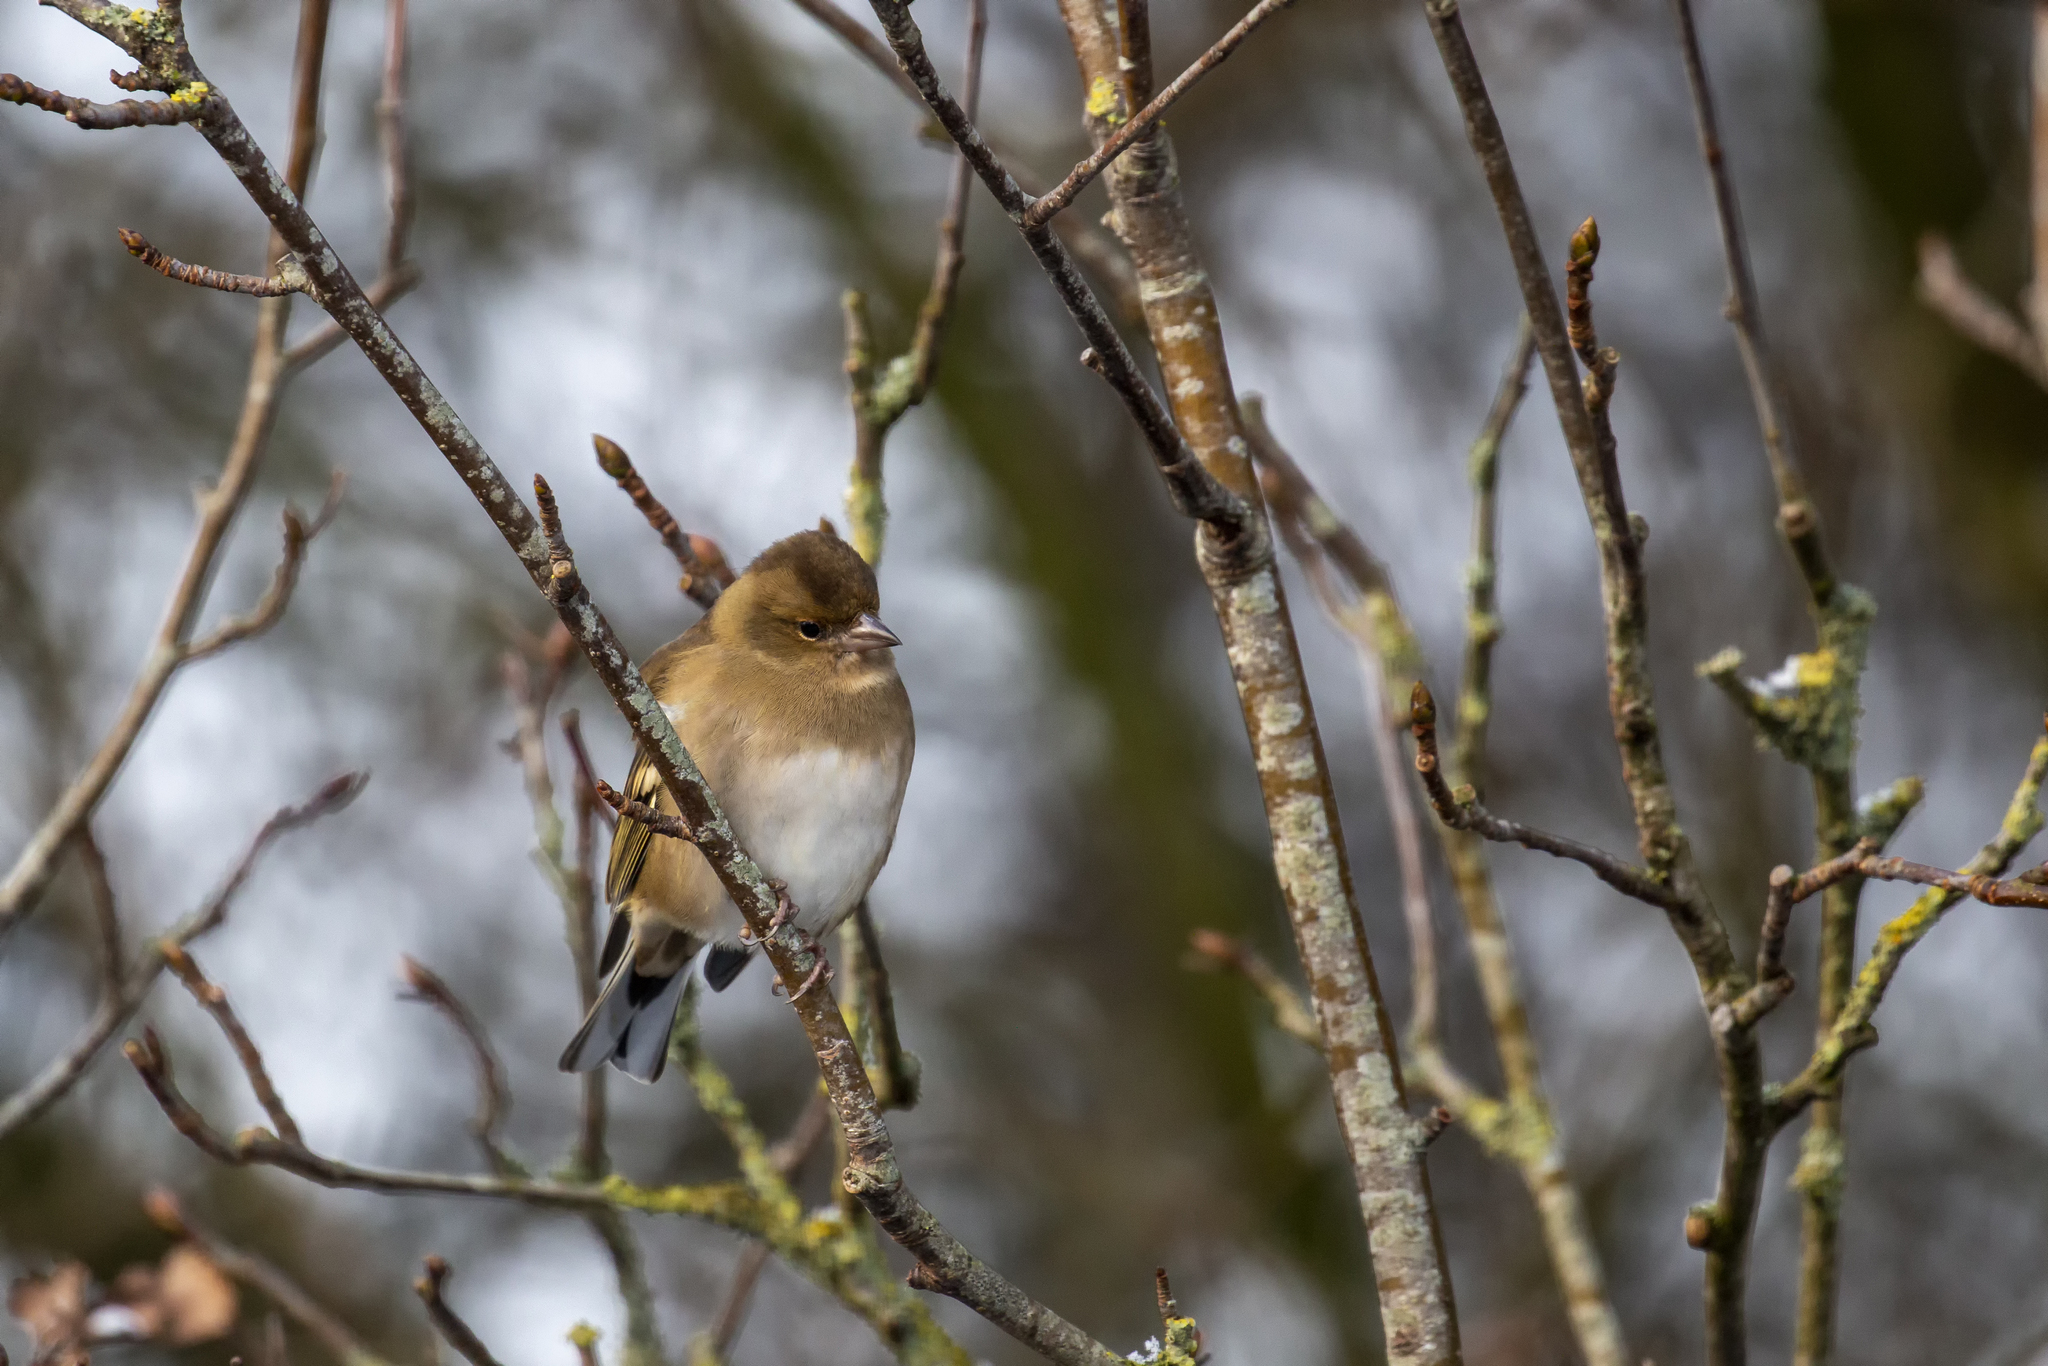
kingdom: Animalia
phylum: Chordata
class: Aves
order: Passeriformes
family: Fringillidae
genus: Fringilla
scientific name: Fringilla coelebs
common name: Common chaffinch
